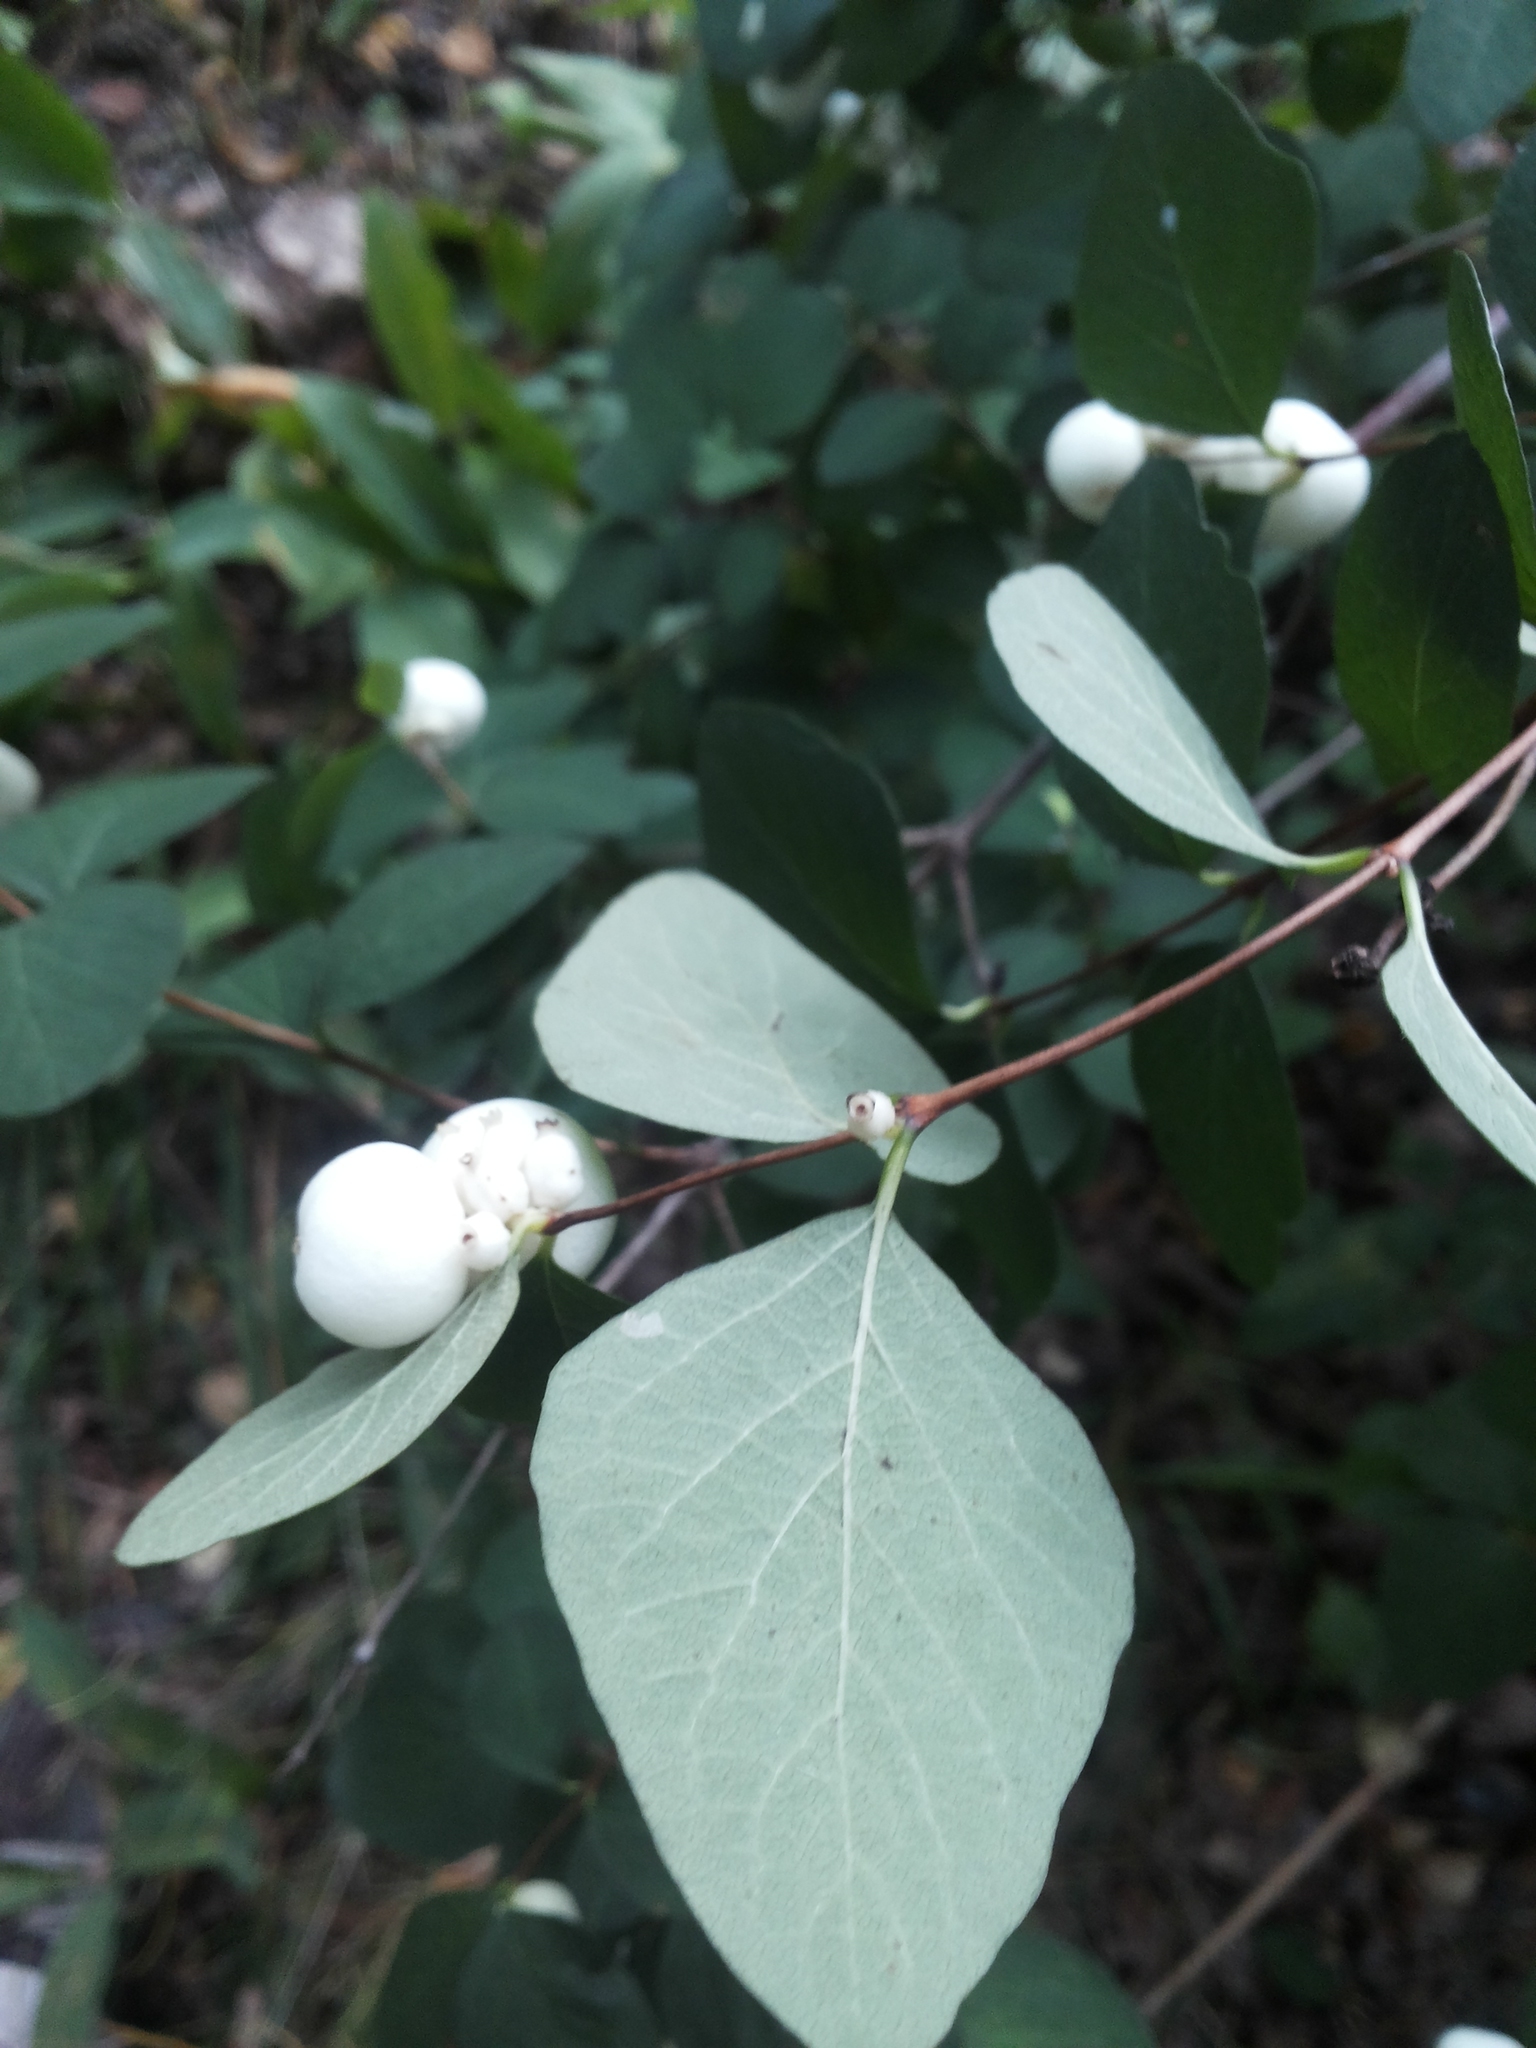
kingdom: Plantae
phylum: Tracheophyta
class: Magnoliopsida
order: Dipsacales
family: Caprifoliaceae
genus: Symphoricarpos
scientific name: Symphoricarpos albus
